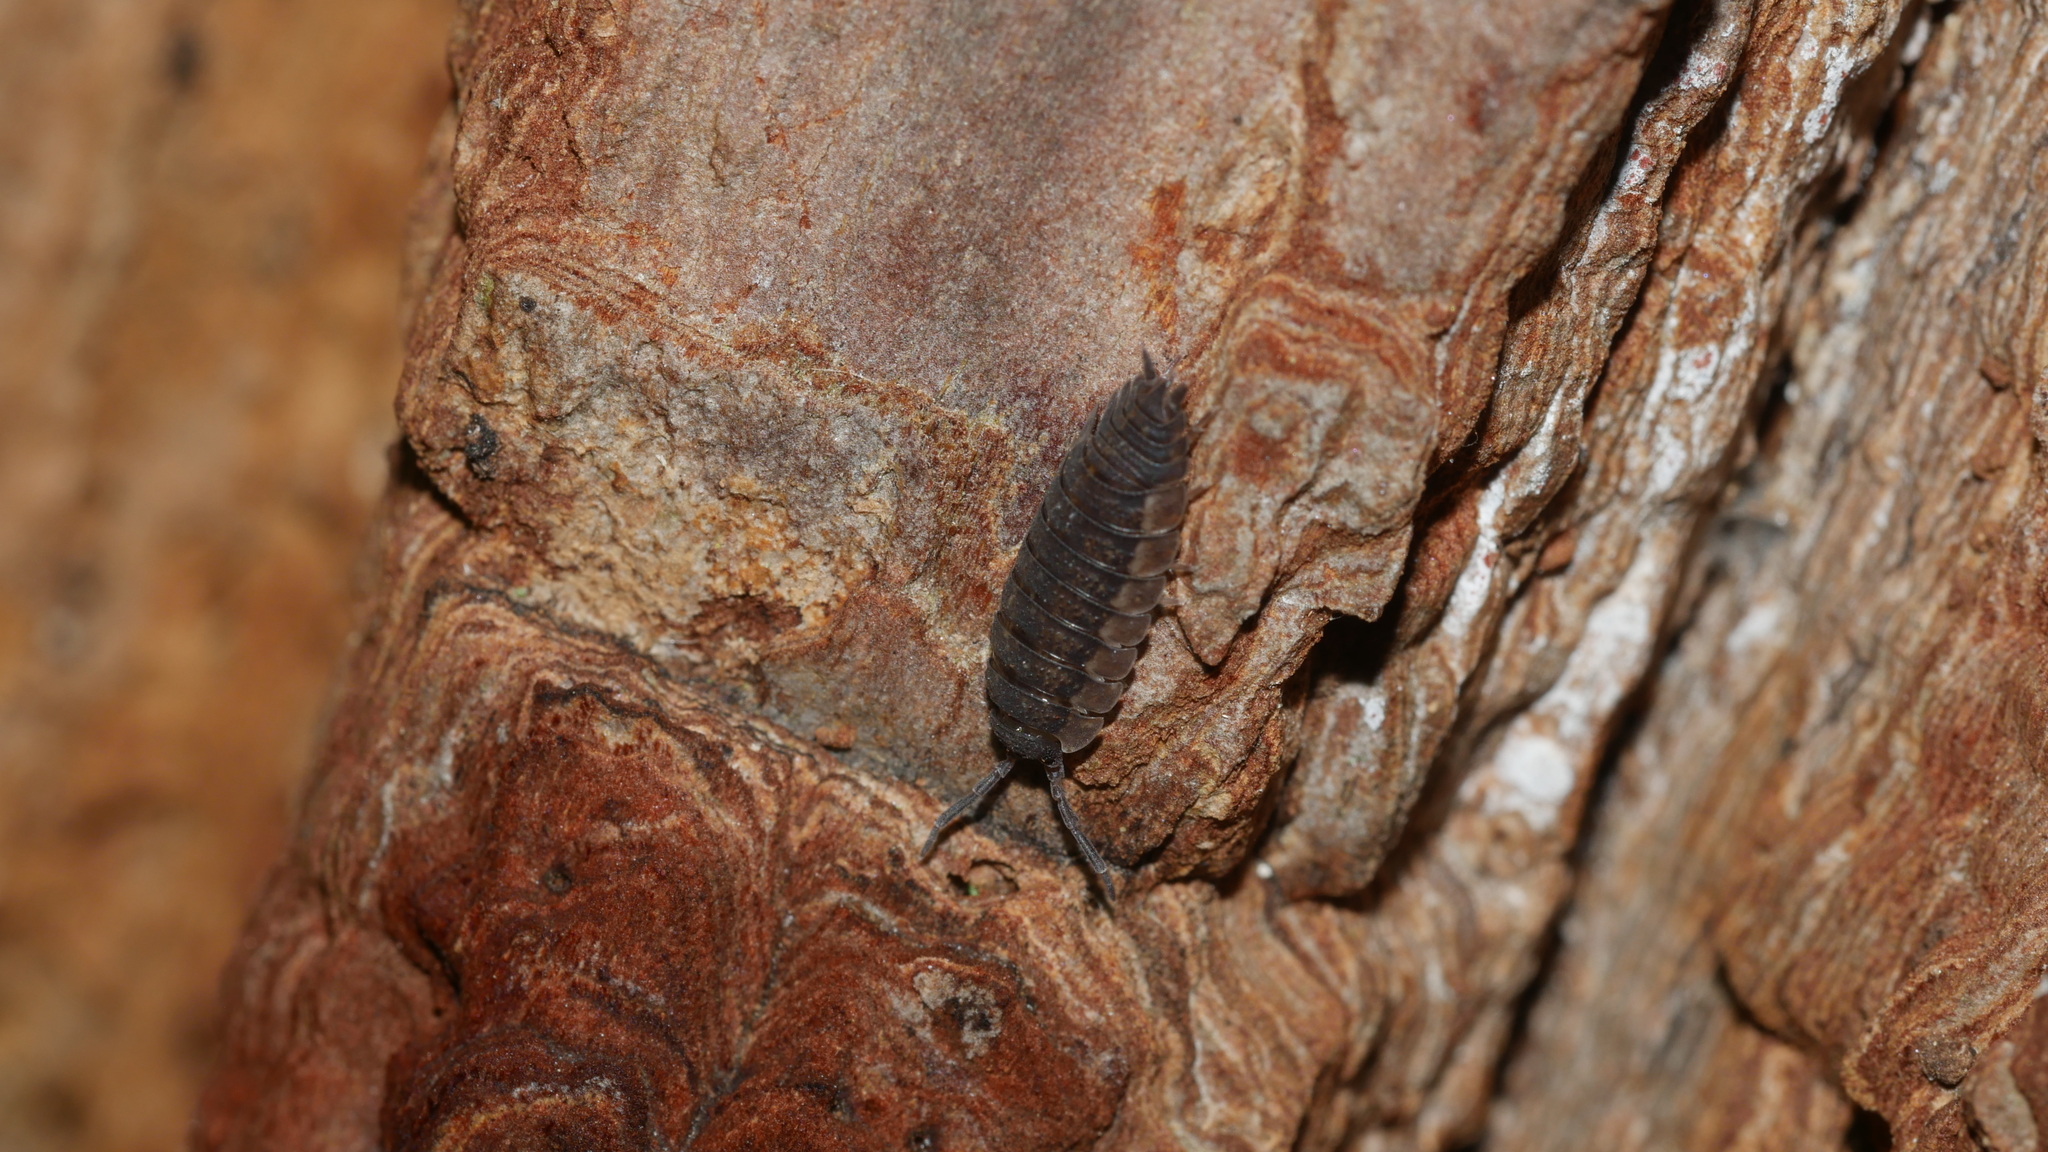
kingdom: Animalia
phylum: Arthropoda
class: Malacostraca
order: Isopoda
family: Porcellionidae
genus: Porcellio
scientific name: Porcellio scaber
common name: Common rough woodlouse
